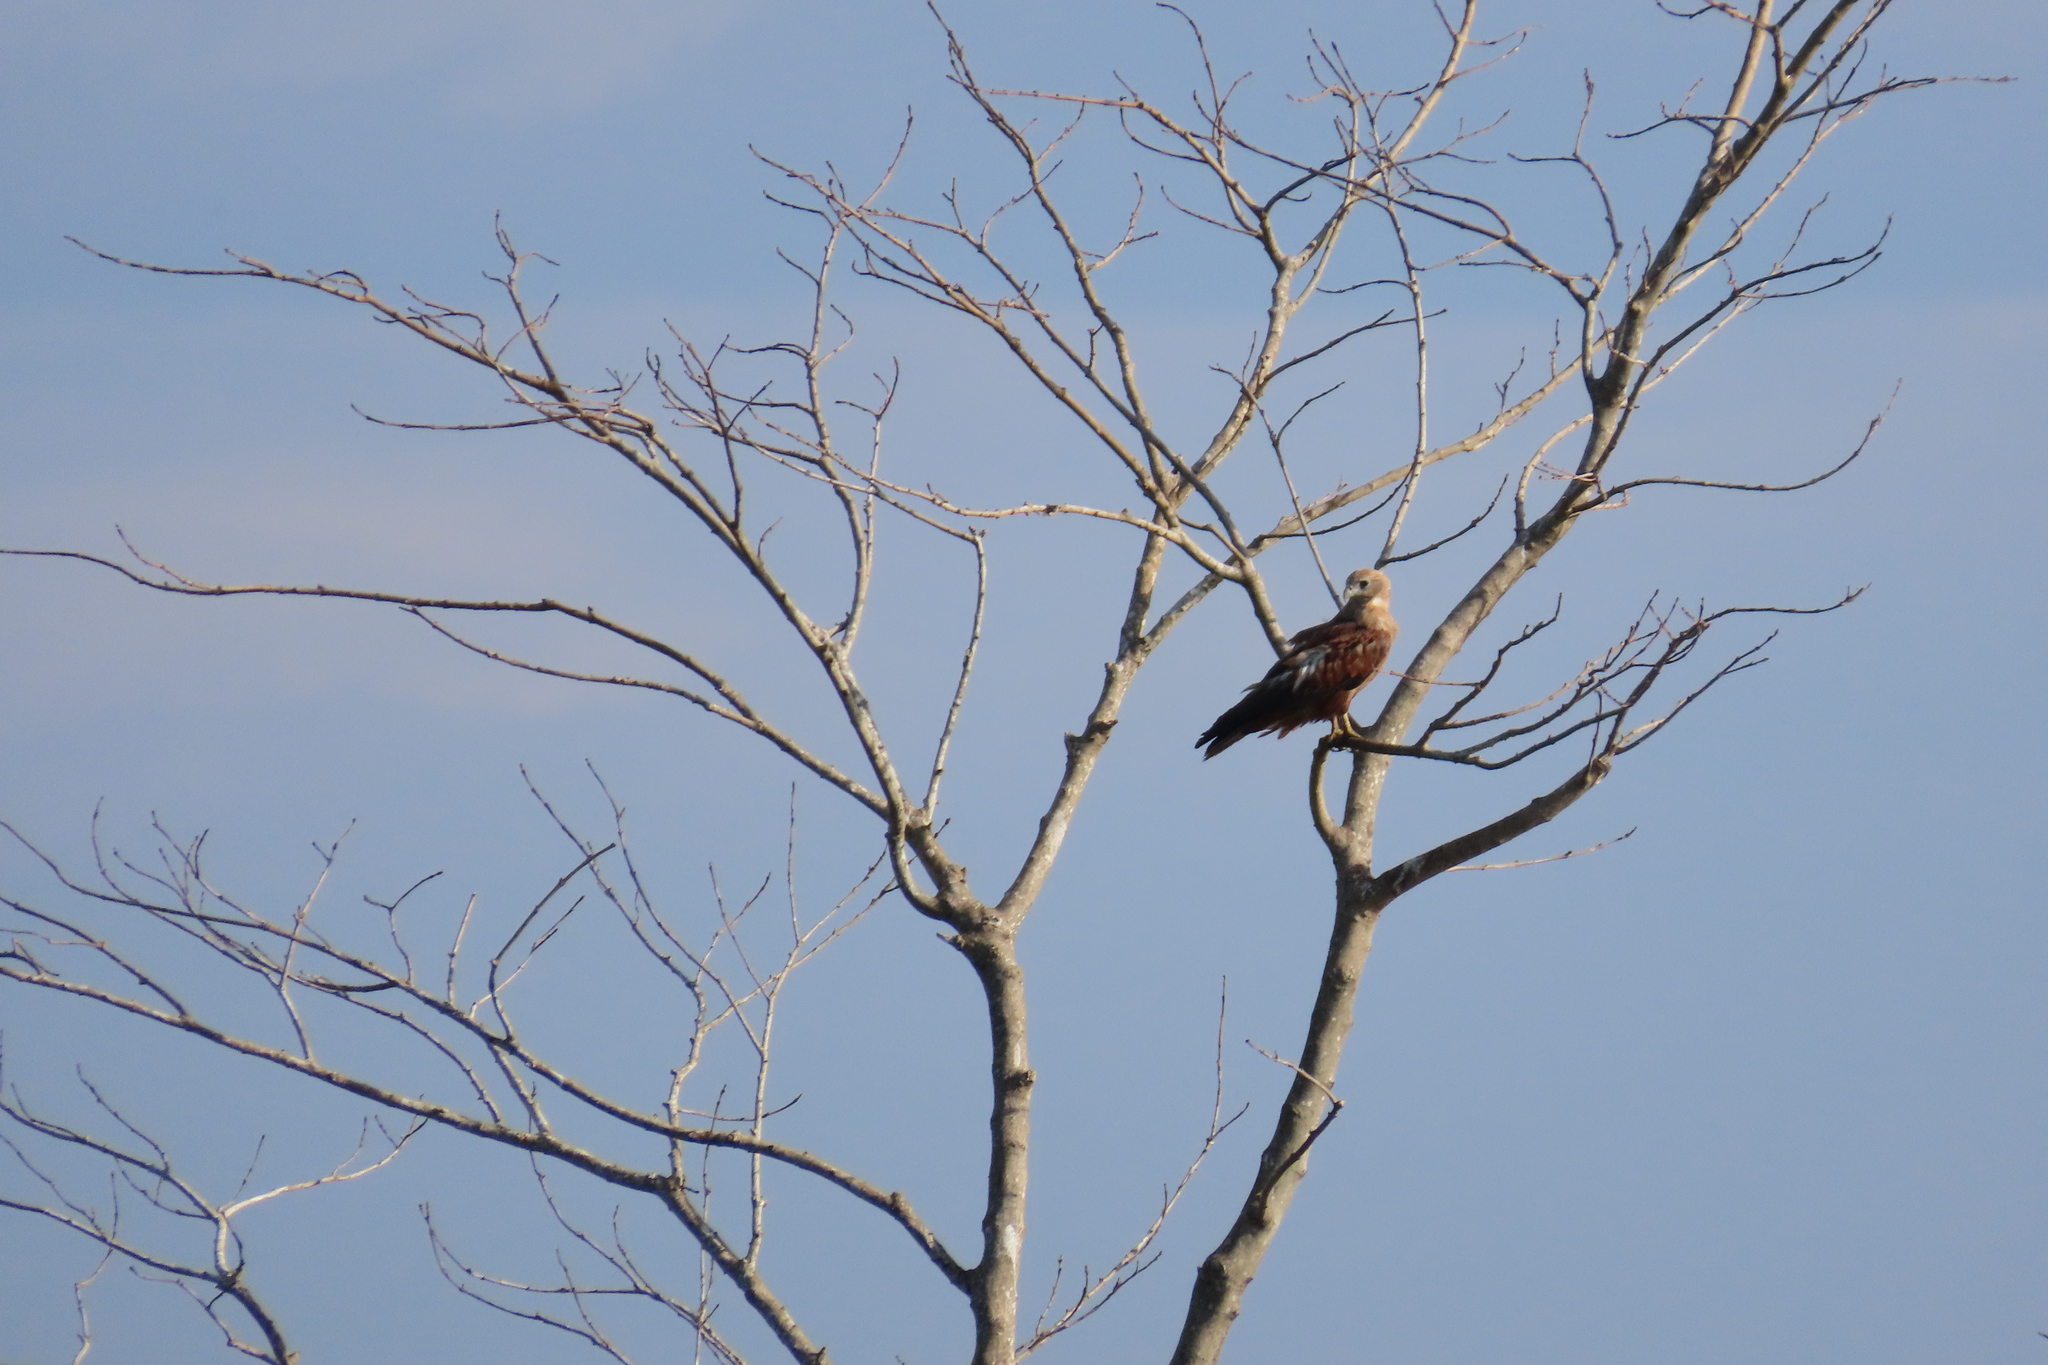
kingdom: Animalia
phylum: Chordata
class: Aves
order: Accipitriformes
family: Accipitridae
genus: Haliastur
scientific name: Haliastur indus
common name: Brahminy kite
